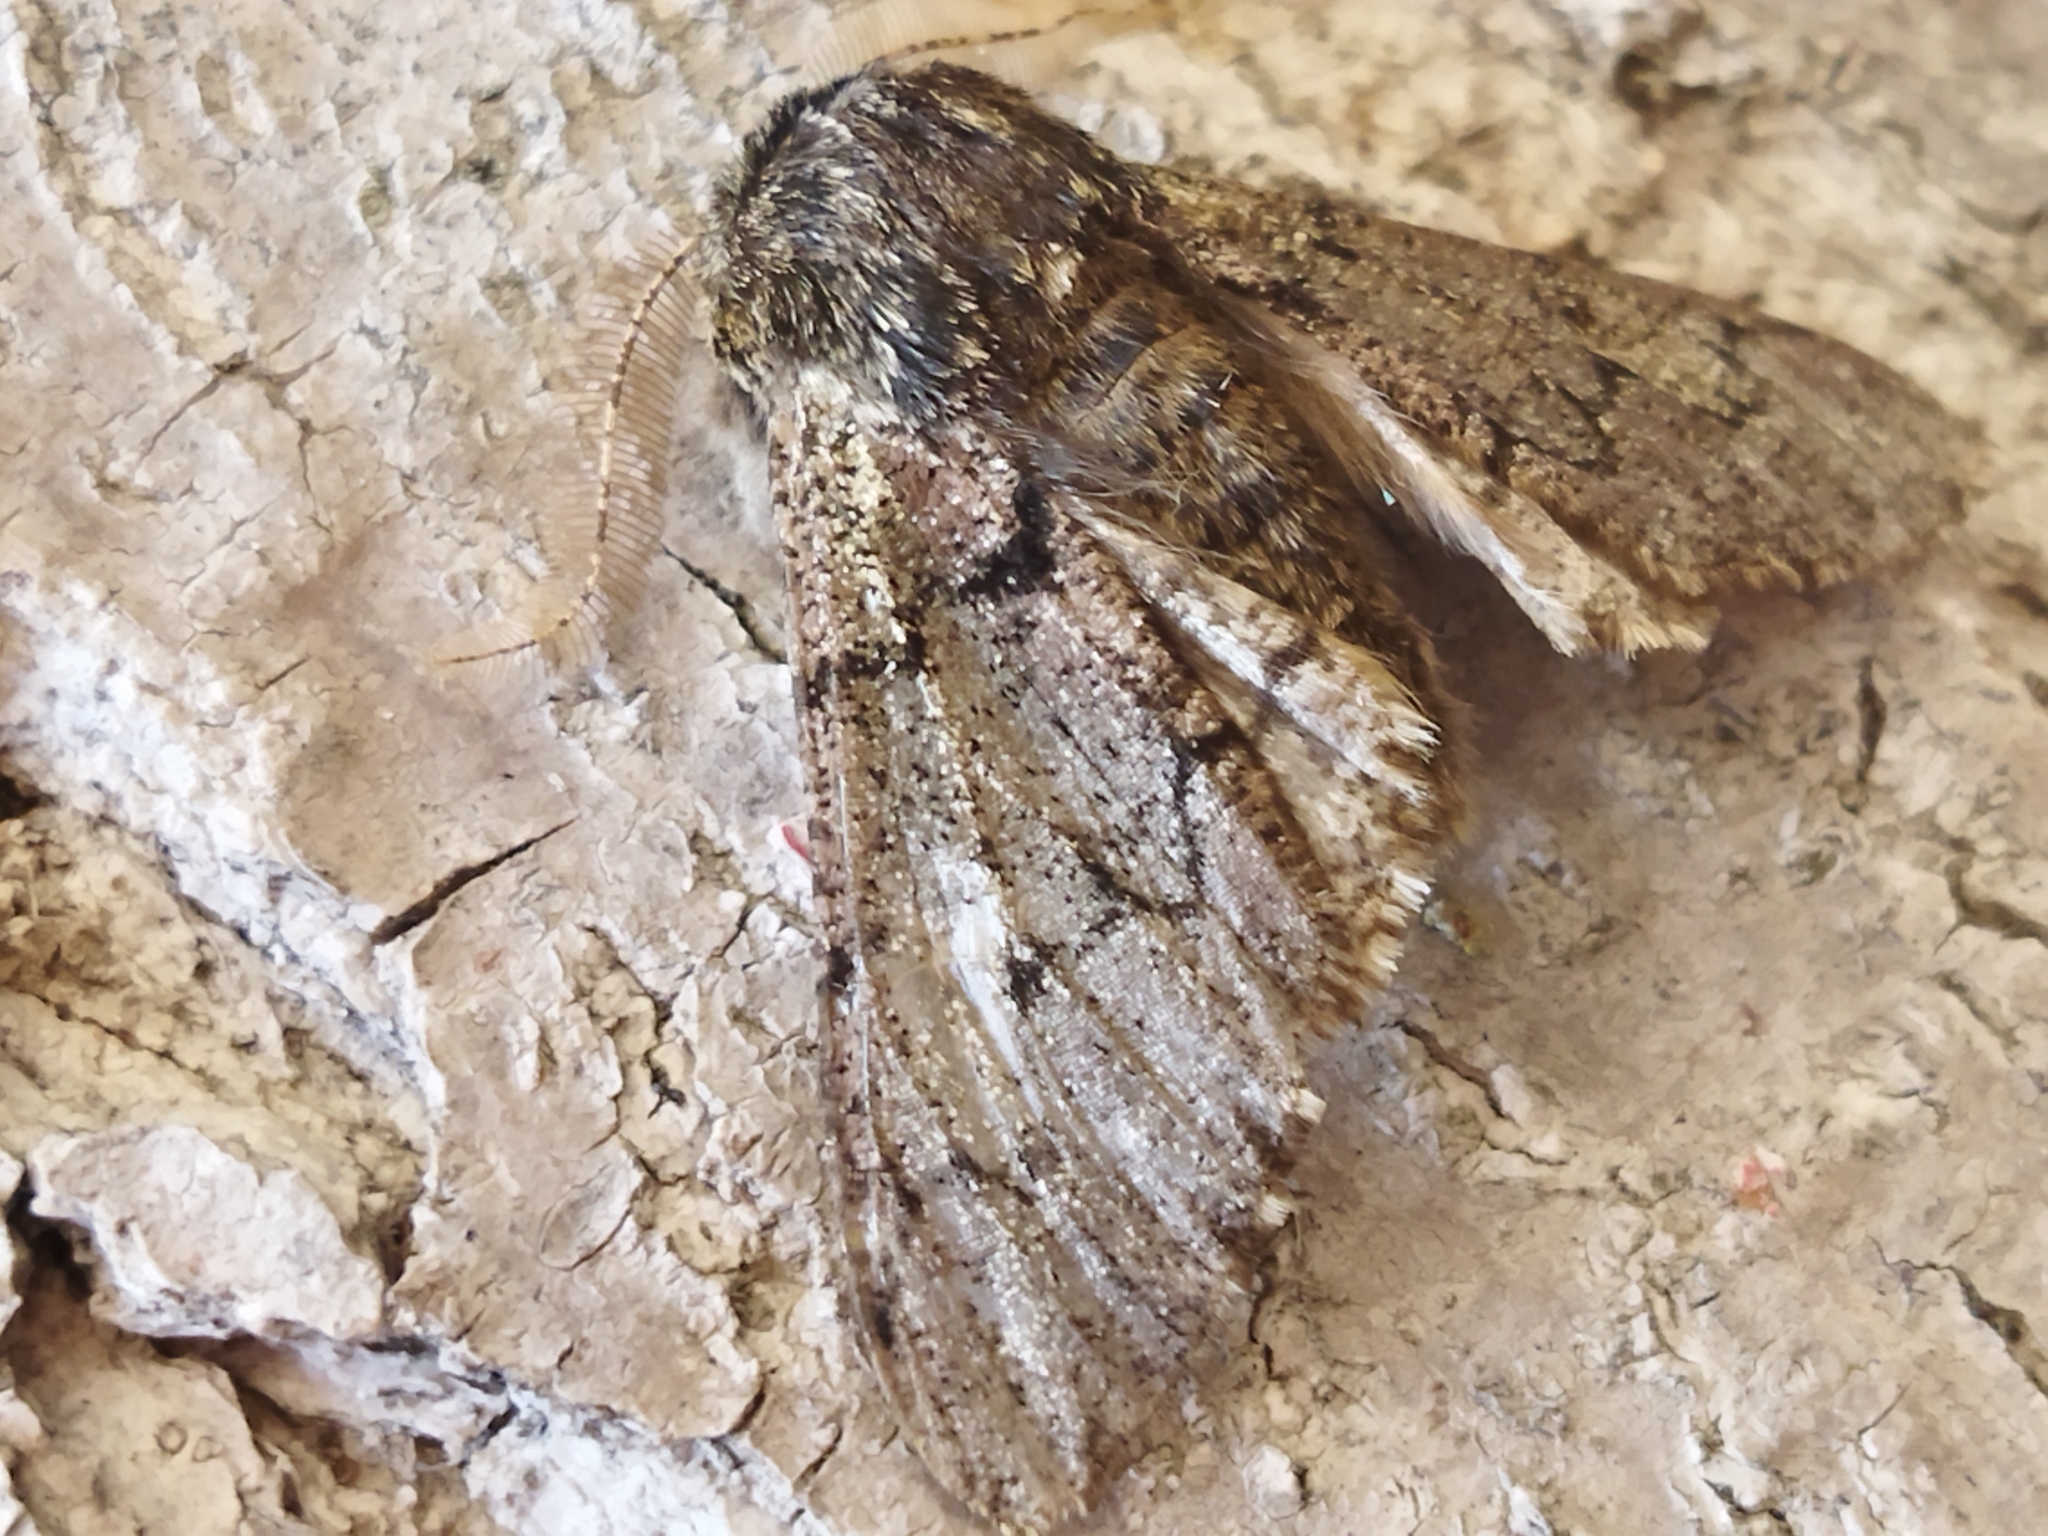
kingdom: Animalia
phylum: Arthropoda
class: Insecta
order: Lepidoptera
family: Geometridae
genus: Biston
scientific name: Biston strataria
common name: Oak beauty
